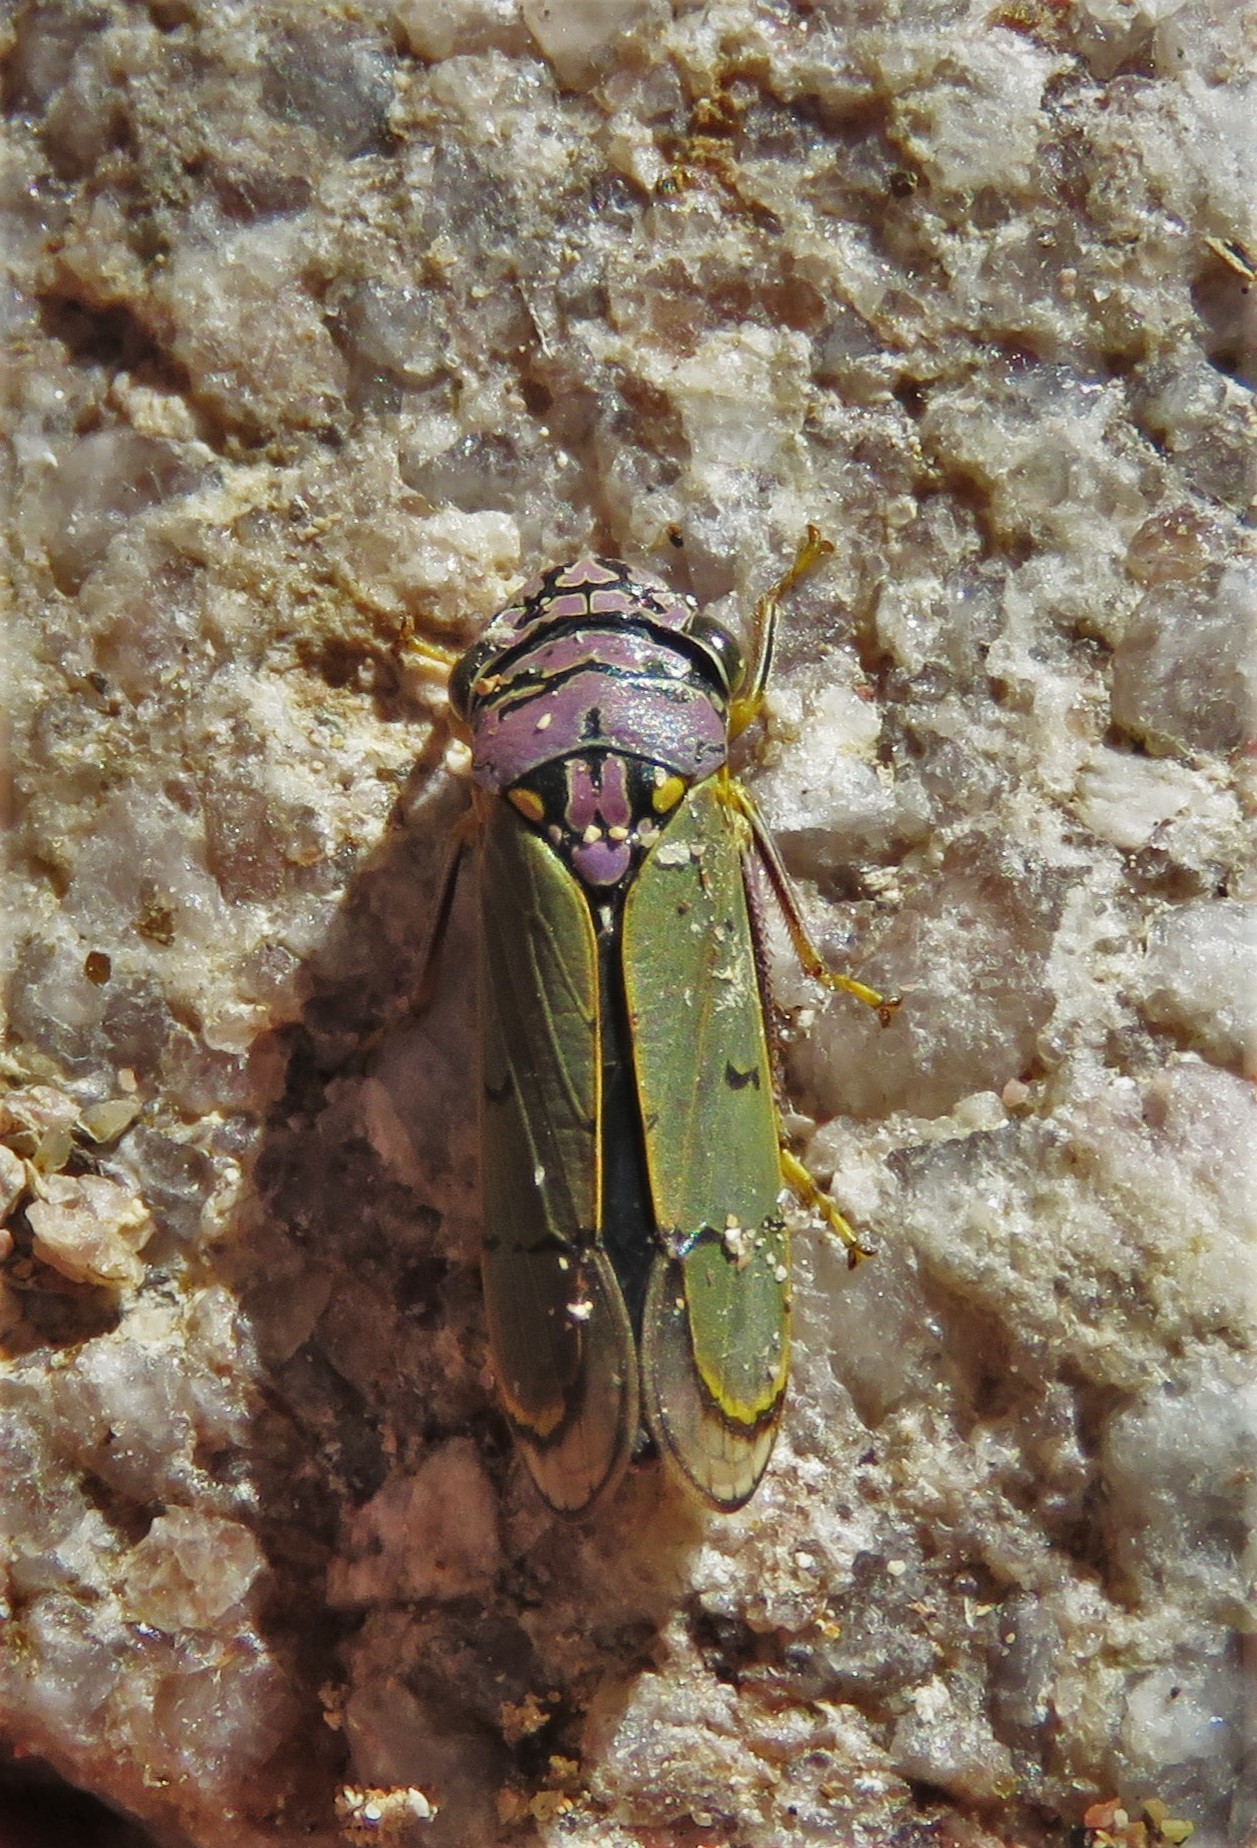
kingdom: Animalia
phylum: Arthropoda
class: Insecta
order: Hemiptera
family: Cicadellidae
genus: Oncometopia
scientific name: Oncometopia alpha
